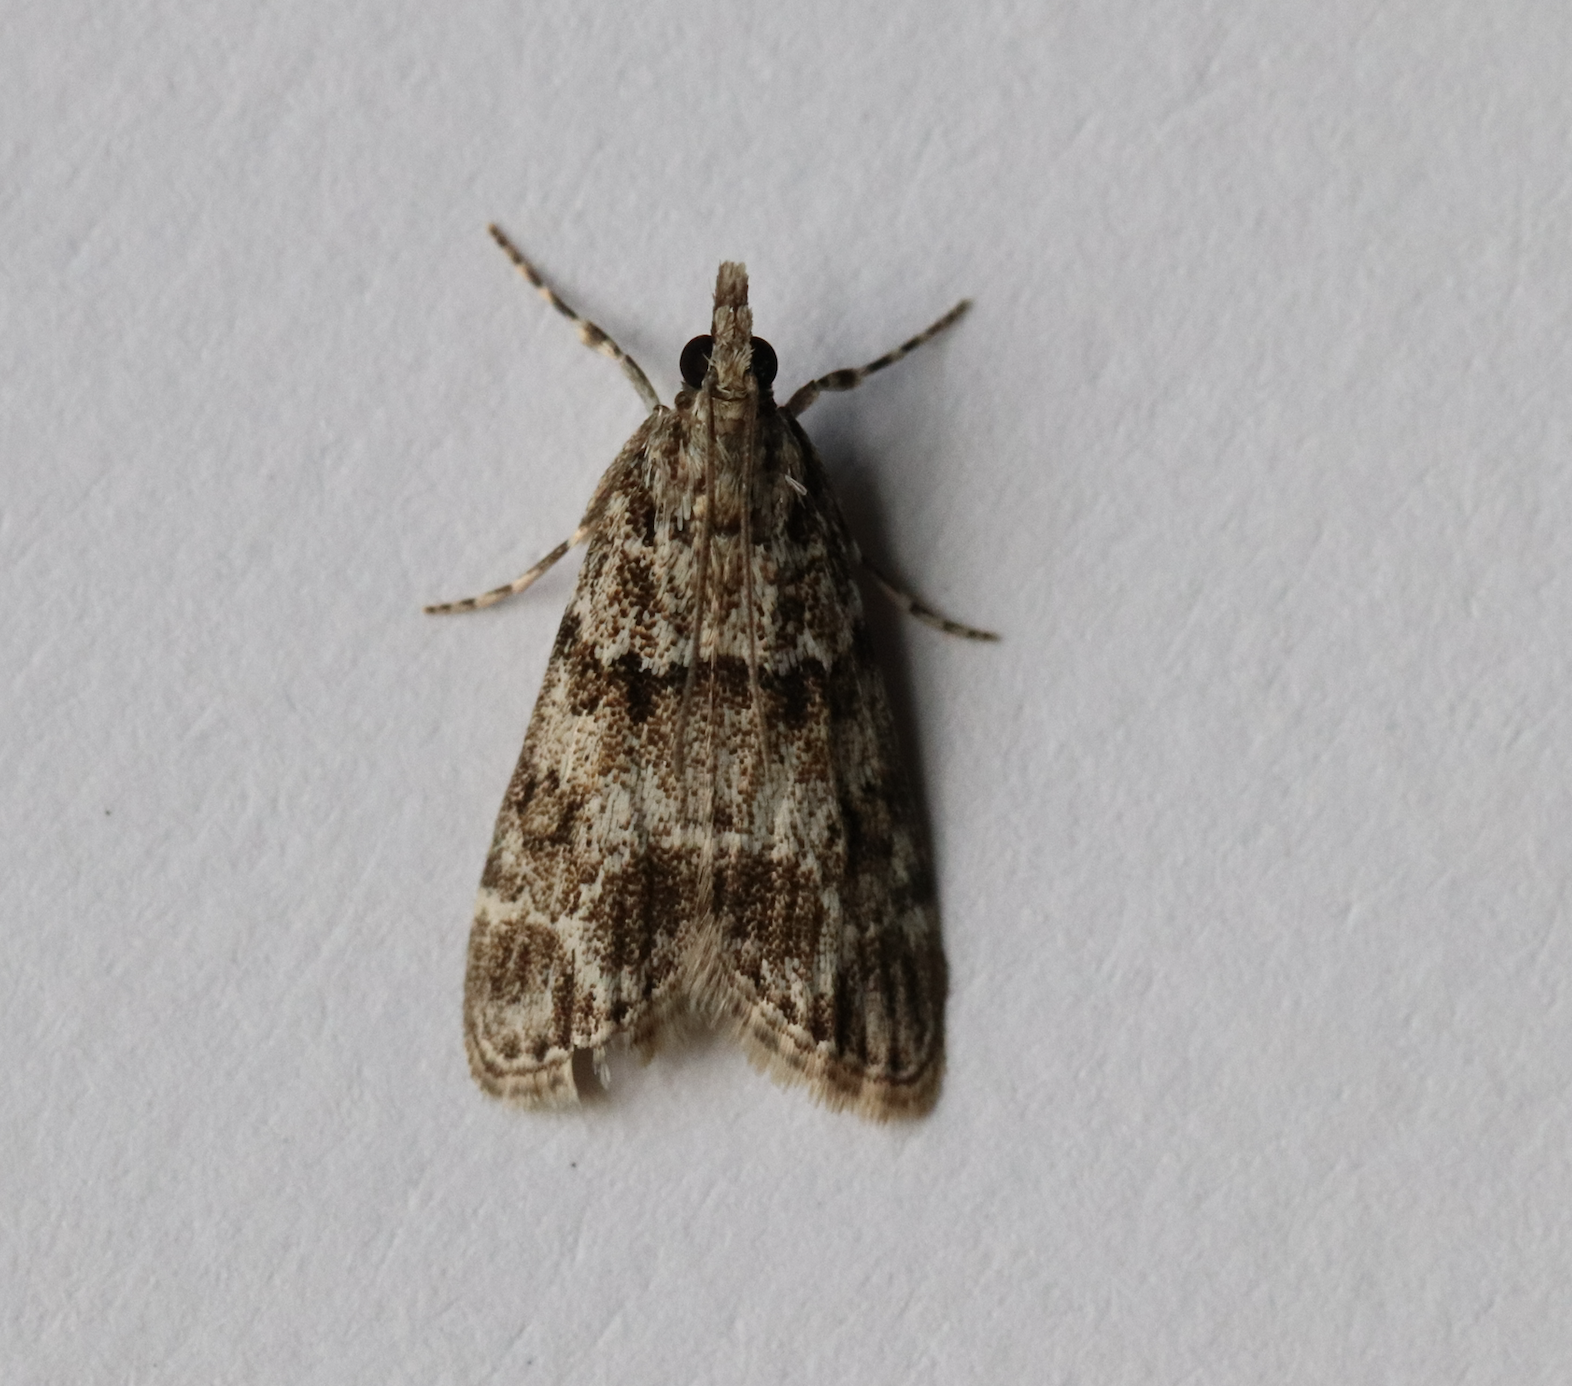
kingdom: Animalia
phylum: Arthropoda
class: Insecta
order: Lepidoptera
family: Crambidae
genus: Eudonia
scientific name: Eudonia mercurella
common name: Small grey
